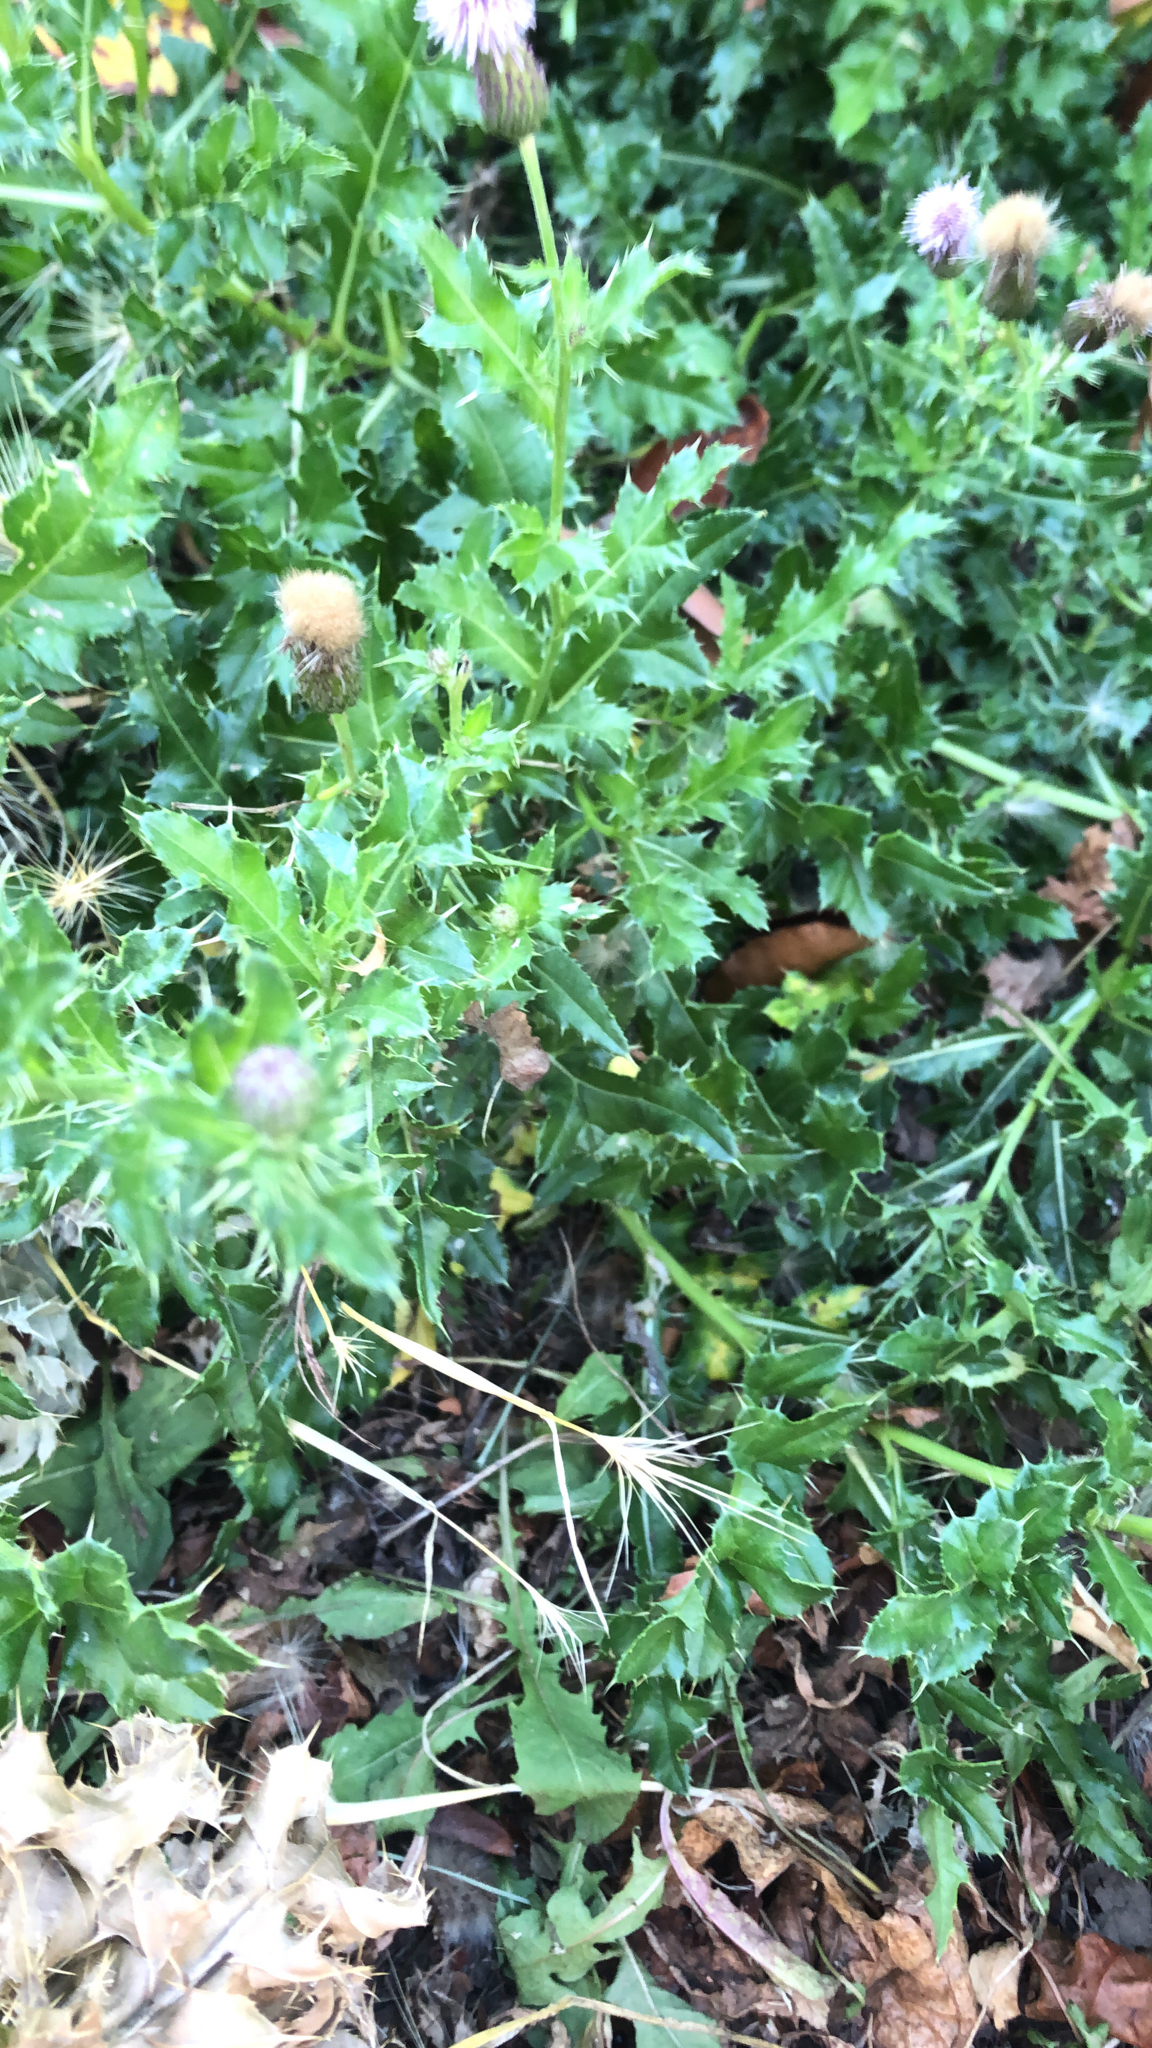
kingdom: Plantae
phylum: Tracheophyta
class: Magnoliopsida
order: Asterales
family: Asteraceae
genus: Cirsium
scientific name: Cirsium arvense
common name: Creeping thistle
